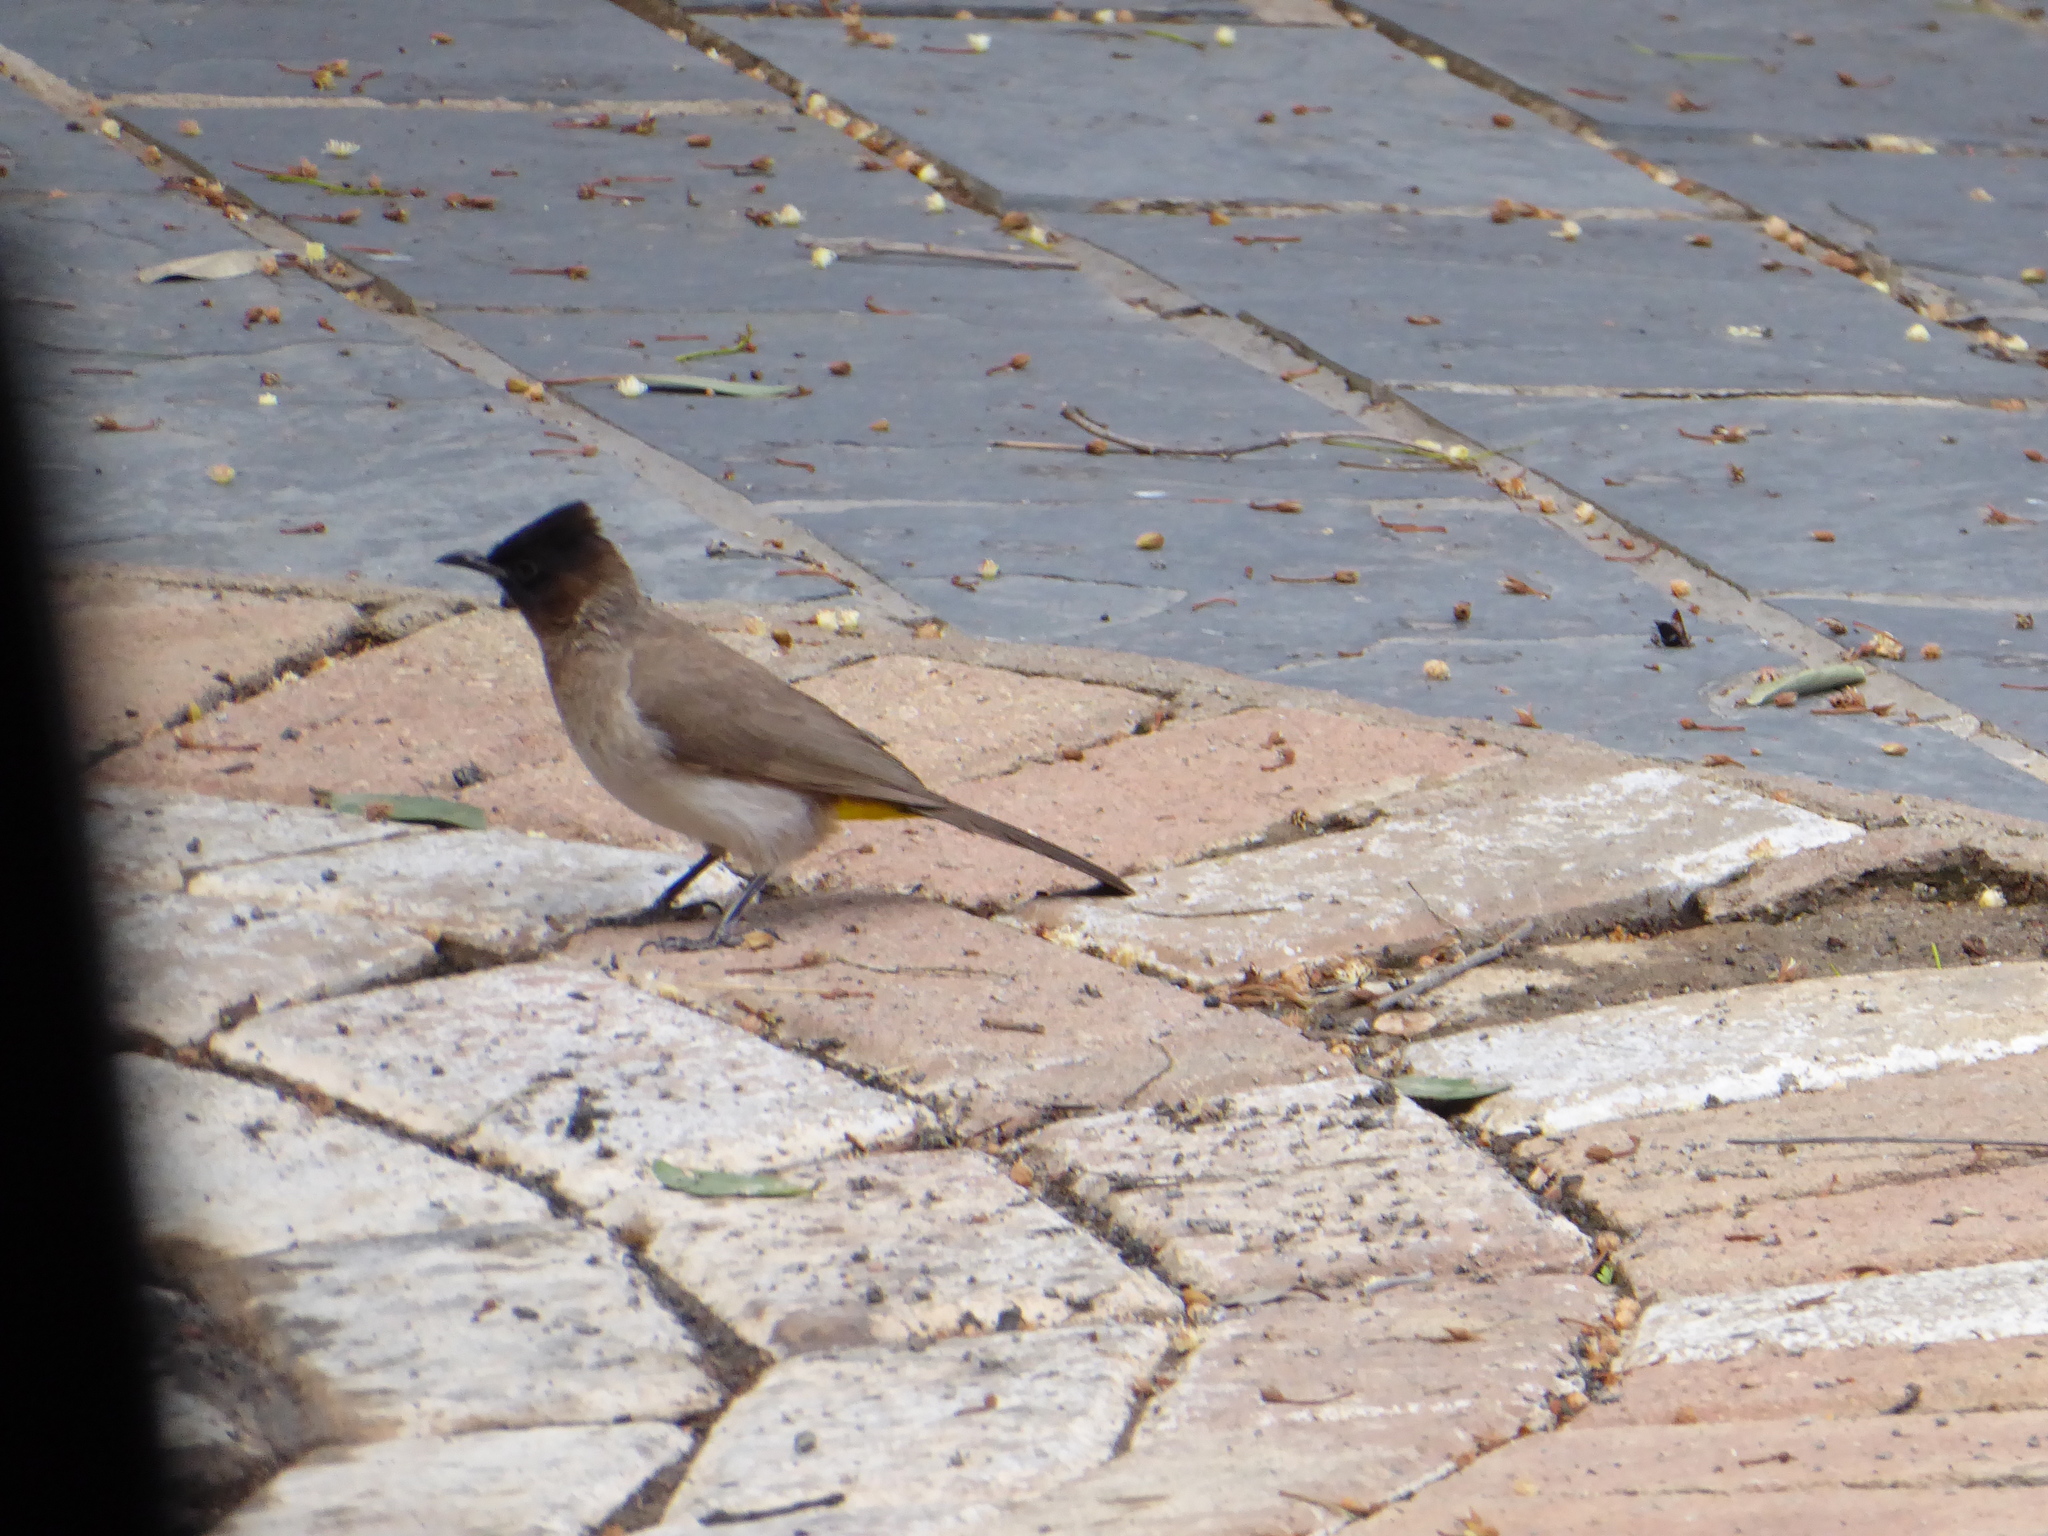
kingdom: Animalia
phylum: Chordata
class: Aves
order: Passeriformes
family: Pycnonotidae
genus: Pycnonotus
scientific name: Pycnonotus barbatus
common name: Common bulbul
